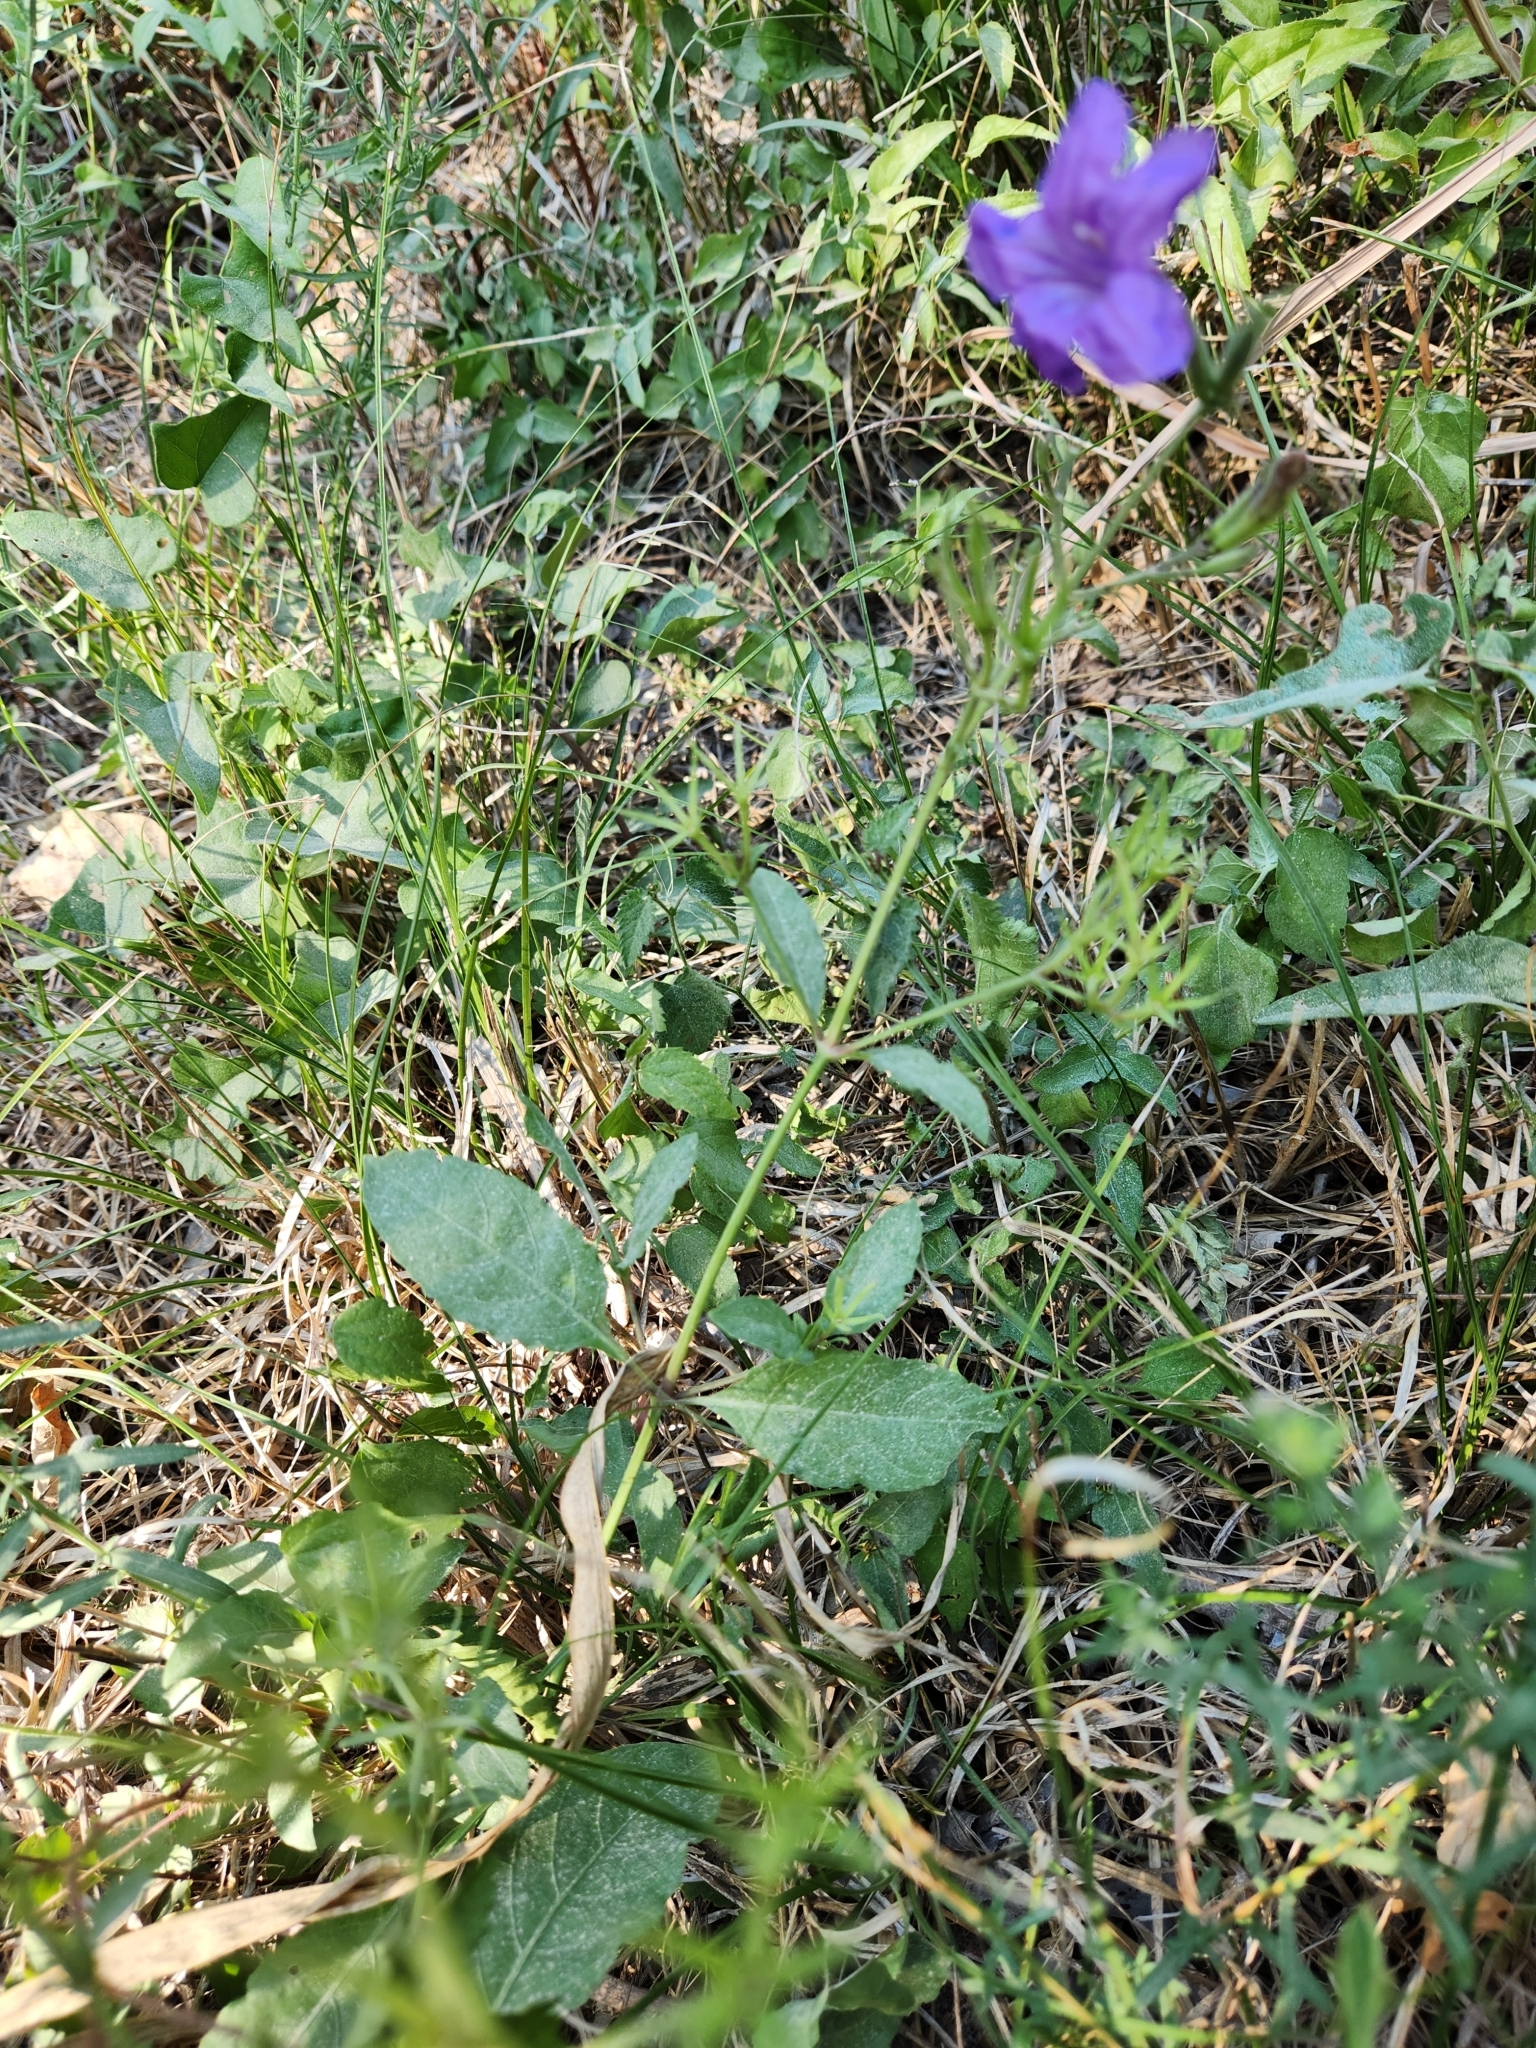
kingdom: Plantae
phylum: Tracheophyta
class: Magnoliopsida
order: Lamiales
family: Acanthaceae
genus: Ruellia
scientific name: Ruellia ciliatiflora
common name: Hairyflower wild petunia
